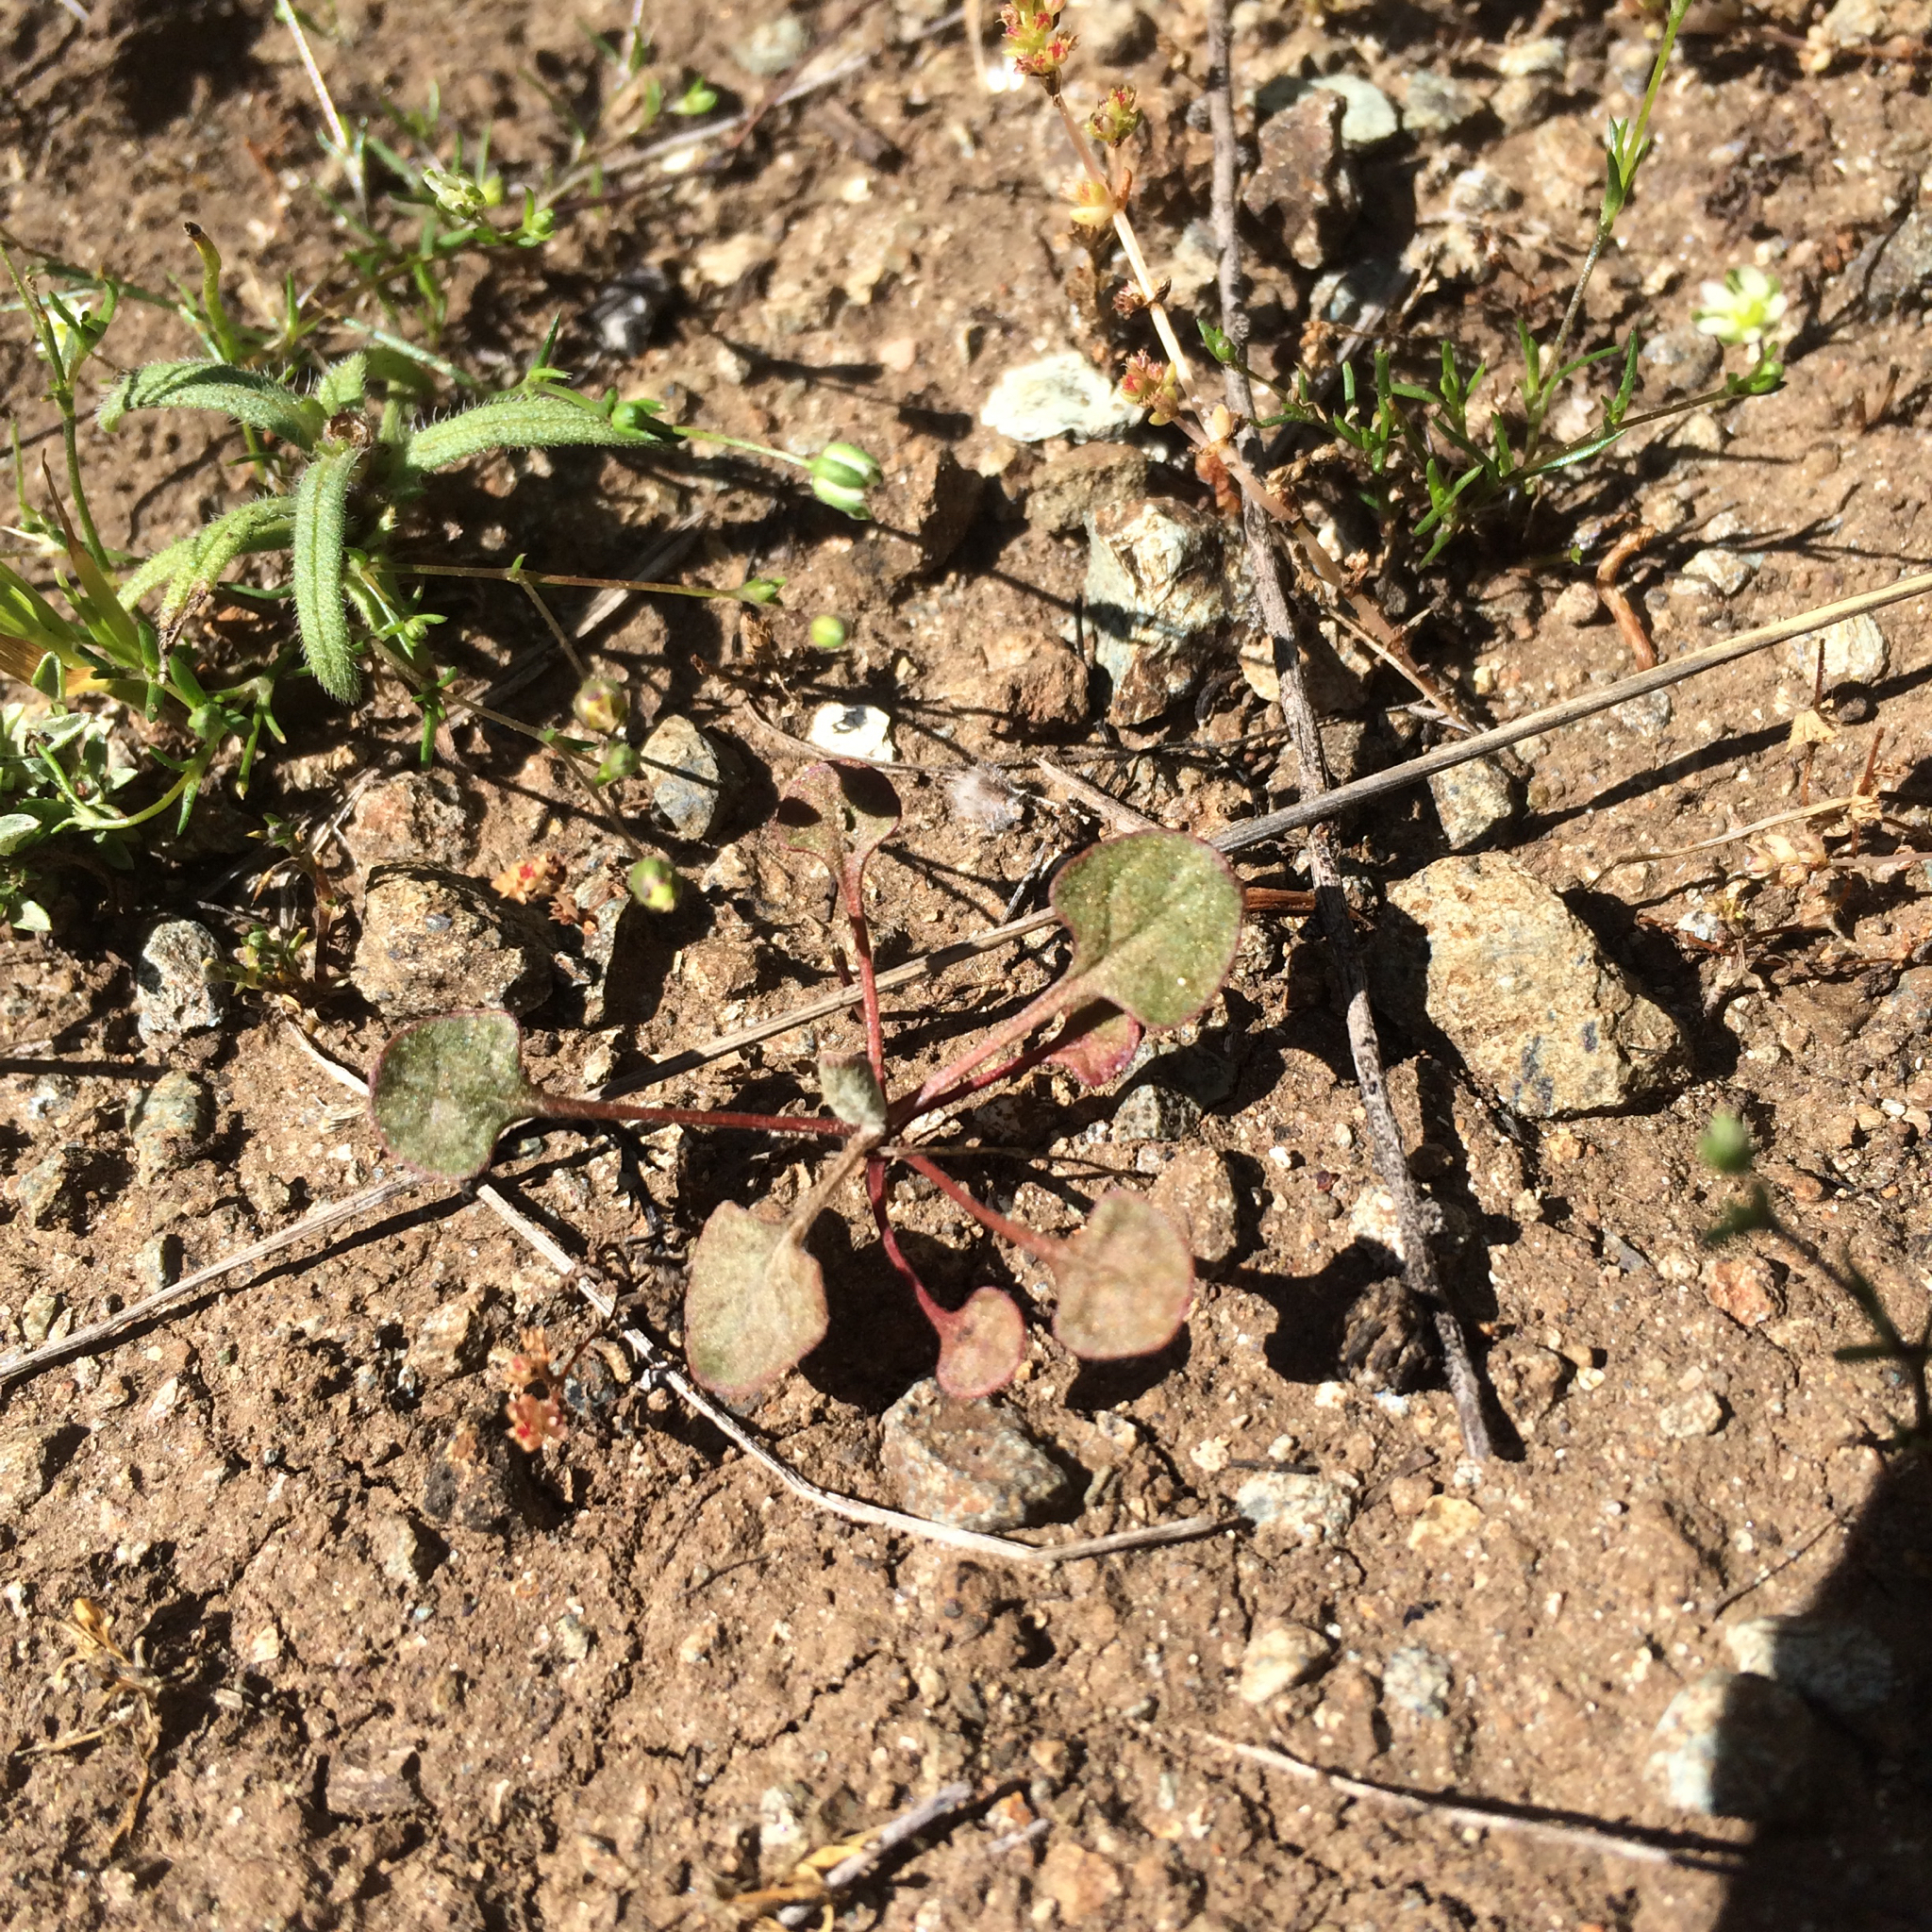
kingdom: Plantae
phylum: Tracheophyta
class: Magnoliopsida
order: Caryophyllales
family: Polygonaceae
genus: Eriogonum
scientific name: Eriogonum luteolum
